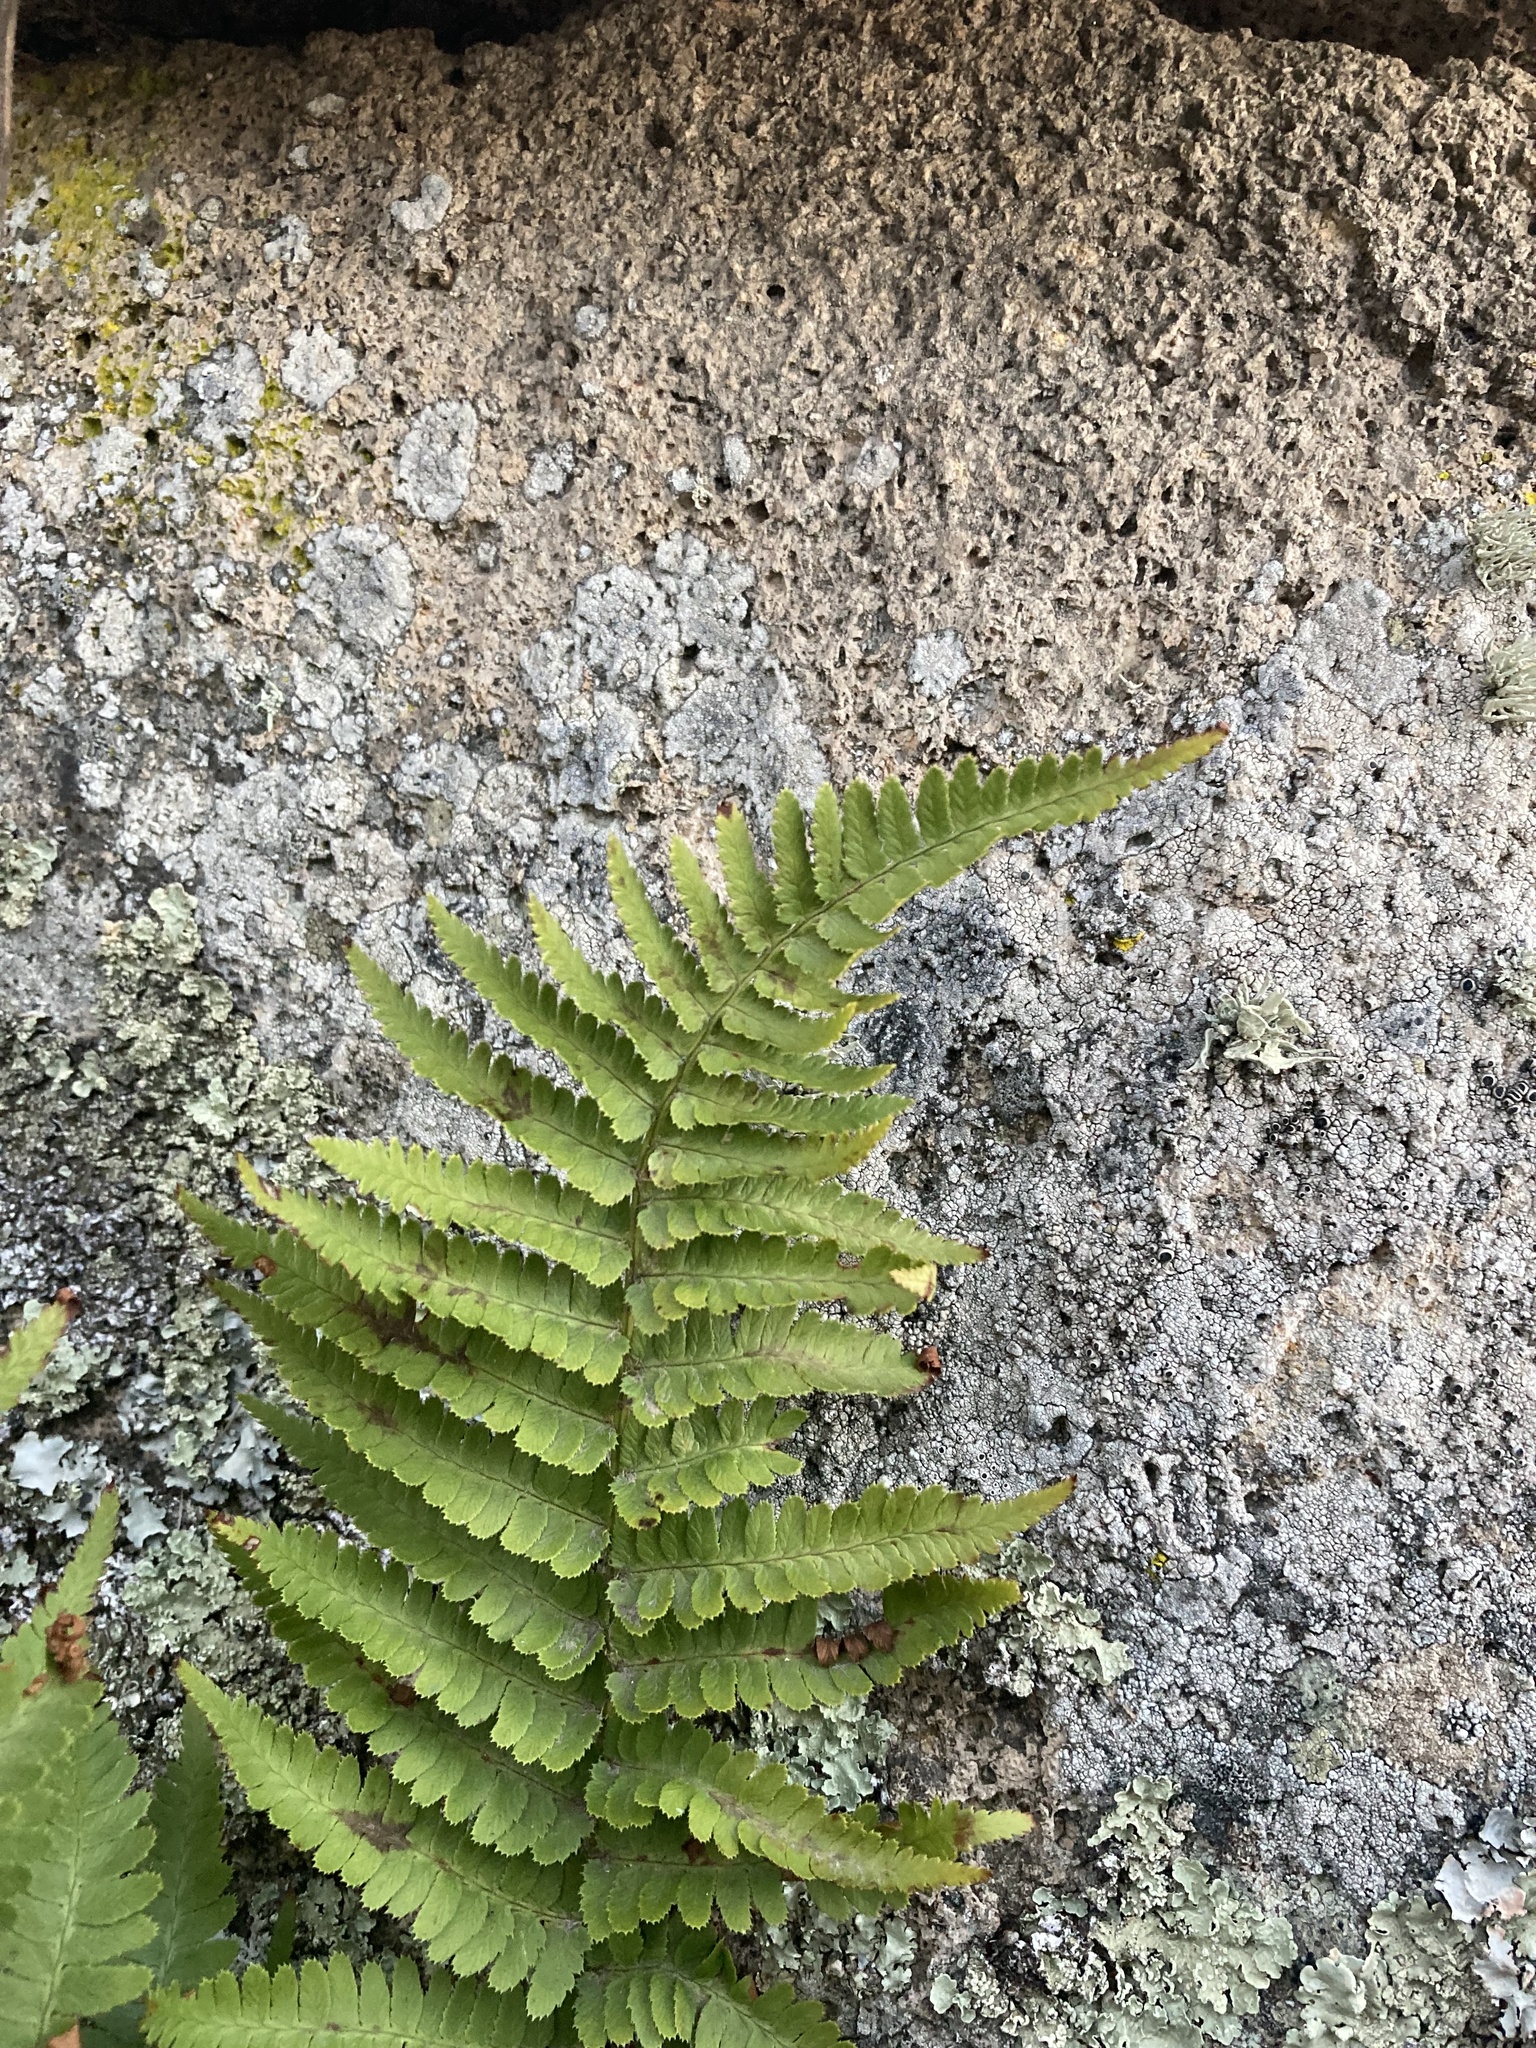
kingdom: Plantae
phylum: Tracheophyta
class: Polypodiopsida
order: Polypodiales
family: Dryopteridaceae
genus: Dryopteris
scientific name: Dryopteris arguta
